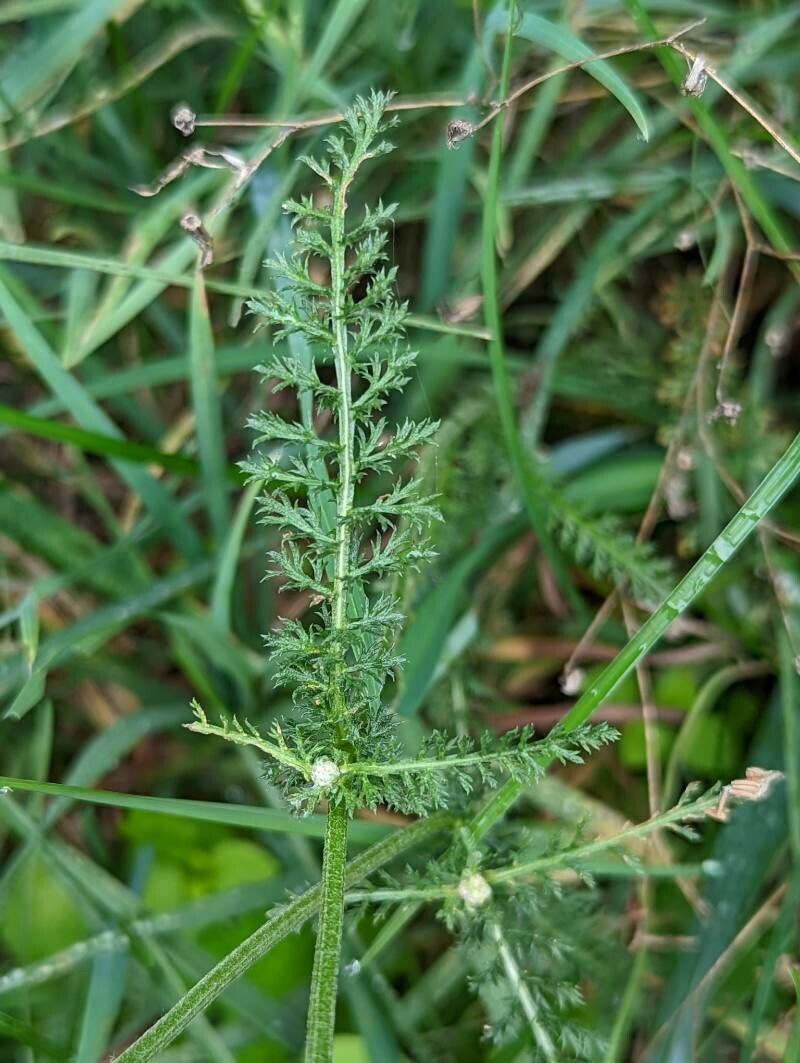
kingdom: Plantae
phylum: Tracheophyta
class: Magnoliopsida
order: Asterales
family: Asteraceae
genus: Achillea
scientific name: Achillea millefolium
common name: Yarrow
